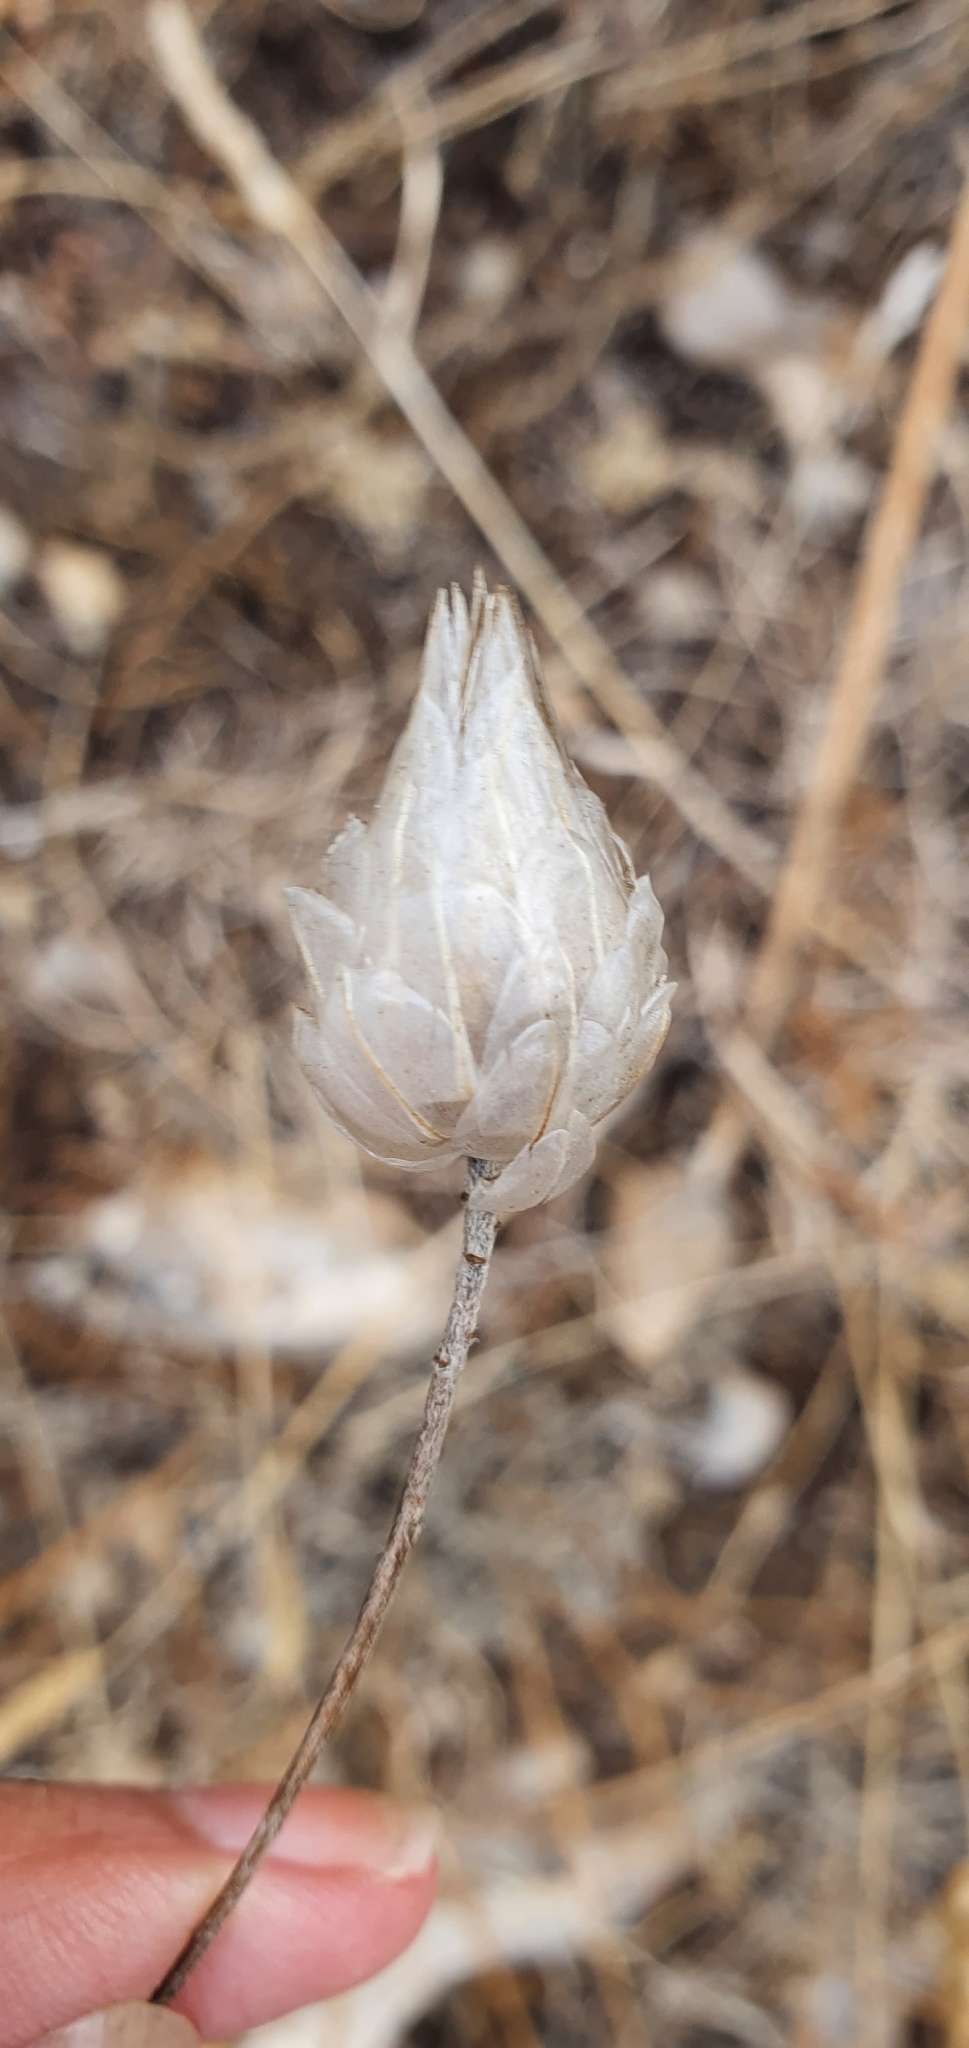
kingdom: Plantae
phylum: Tracheophyta
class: Magnoliopsida
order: Asterales
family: Asteraceae
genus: Catananche
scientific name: Catananche caerulea
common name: Blue cupidone
